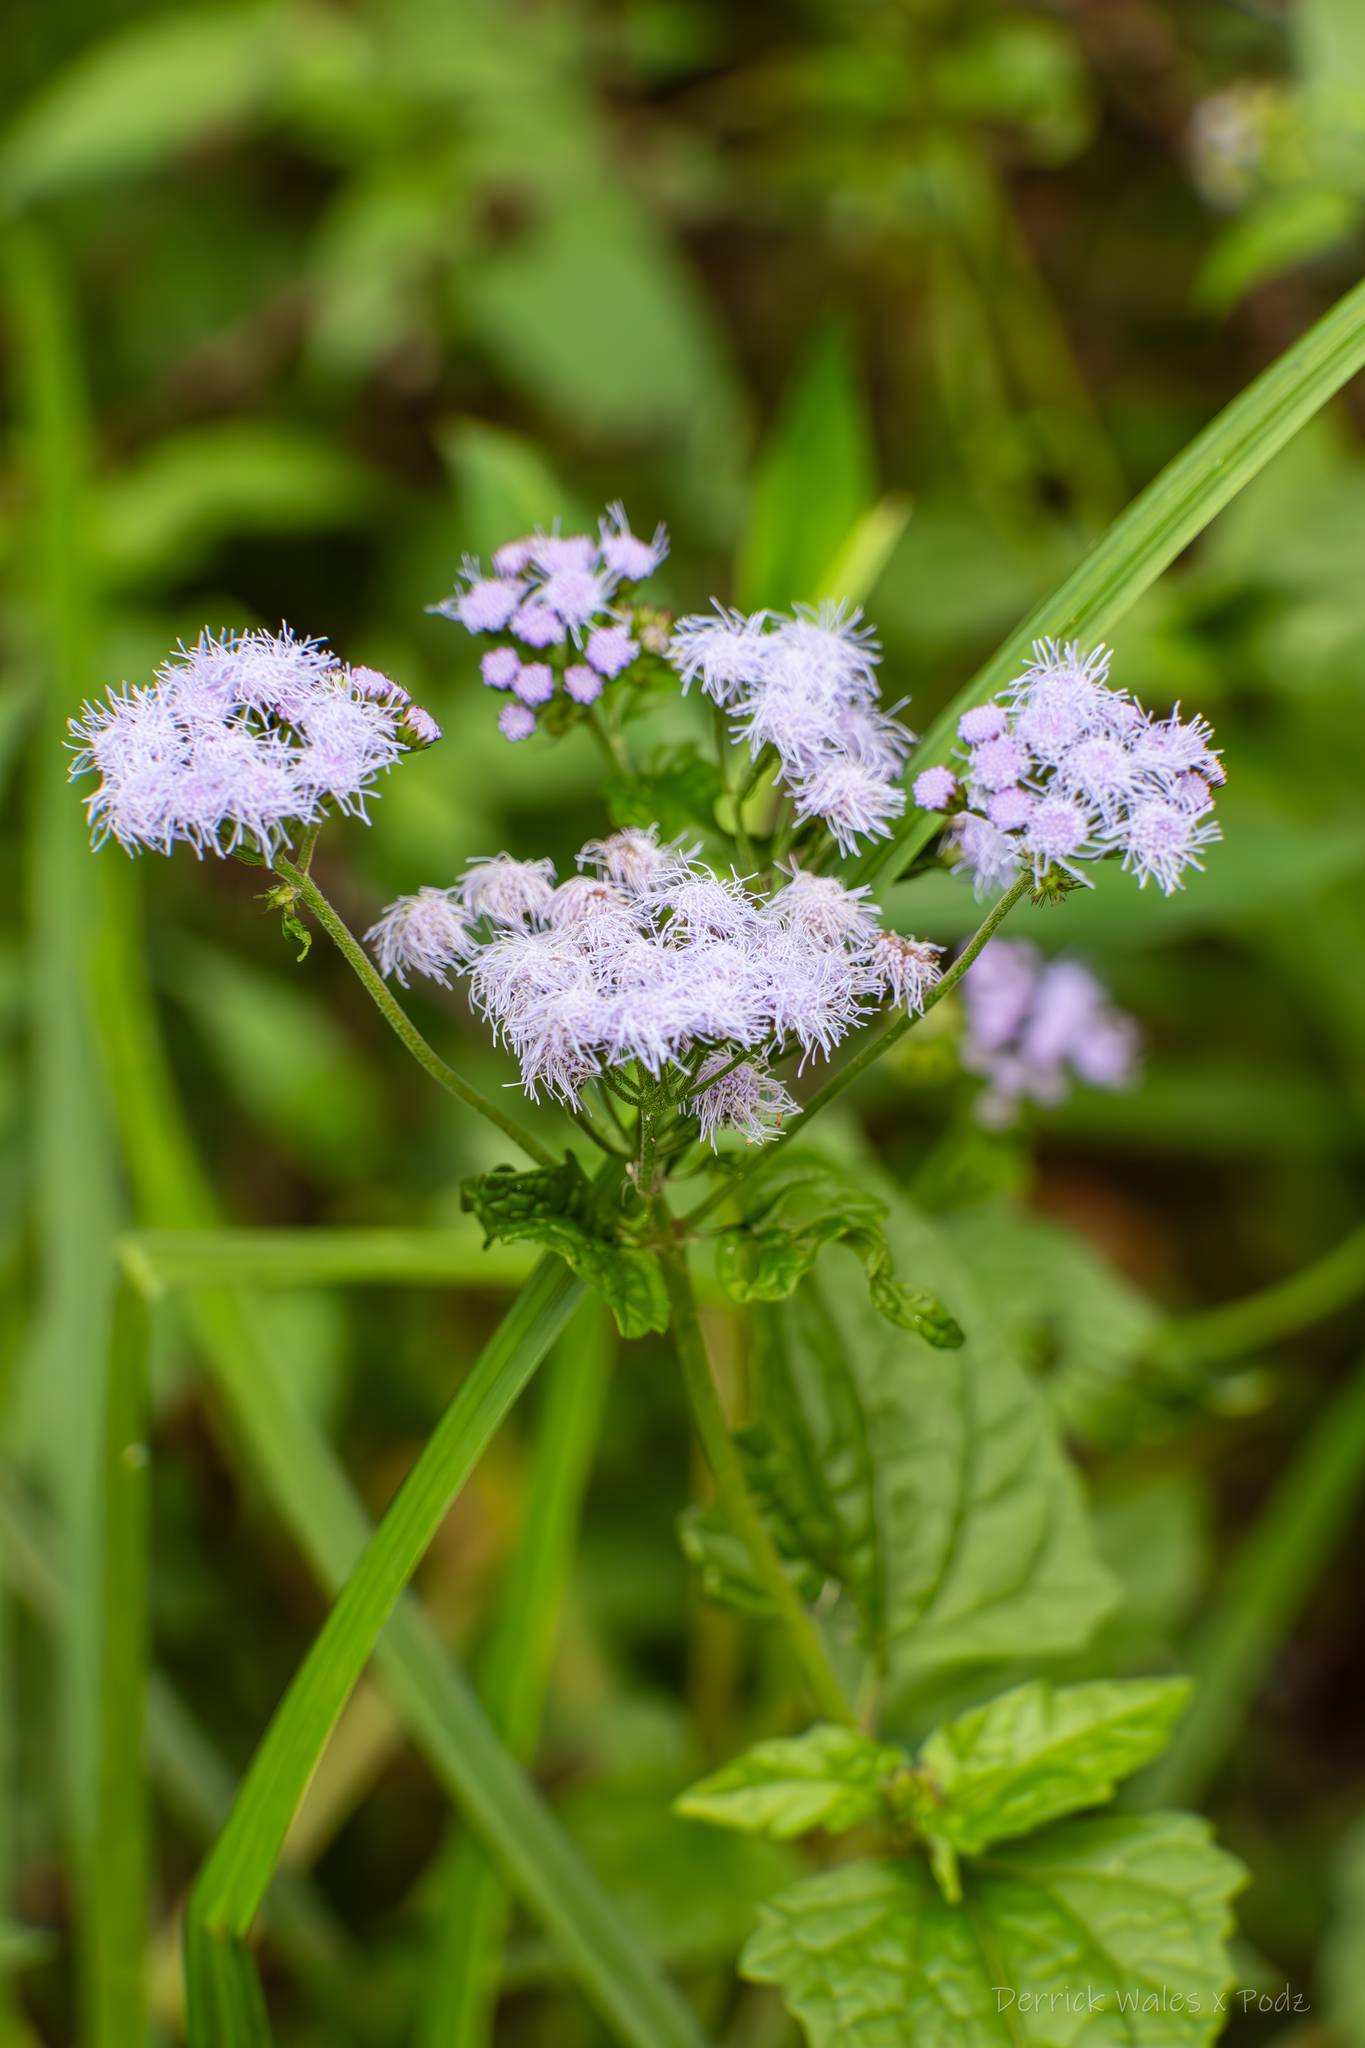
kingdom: Plantae
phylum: Tracheophyta
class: Magnoliopsida
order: Asterales
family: Asteraceae
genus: Conoclinium
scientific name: Conoclinium coelestinum
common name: Blue mistflower
